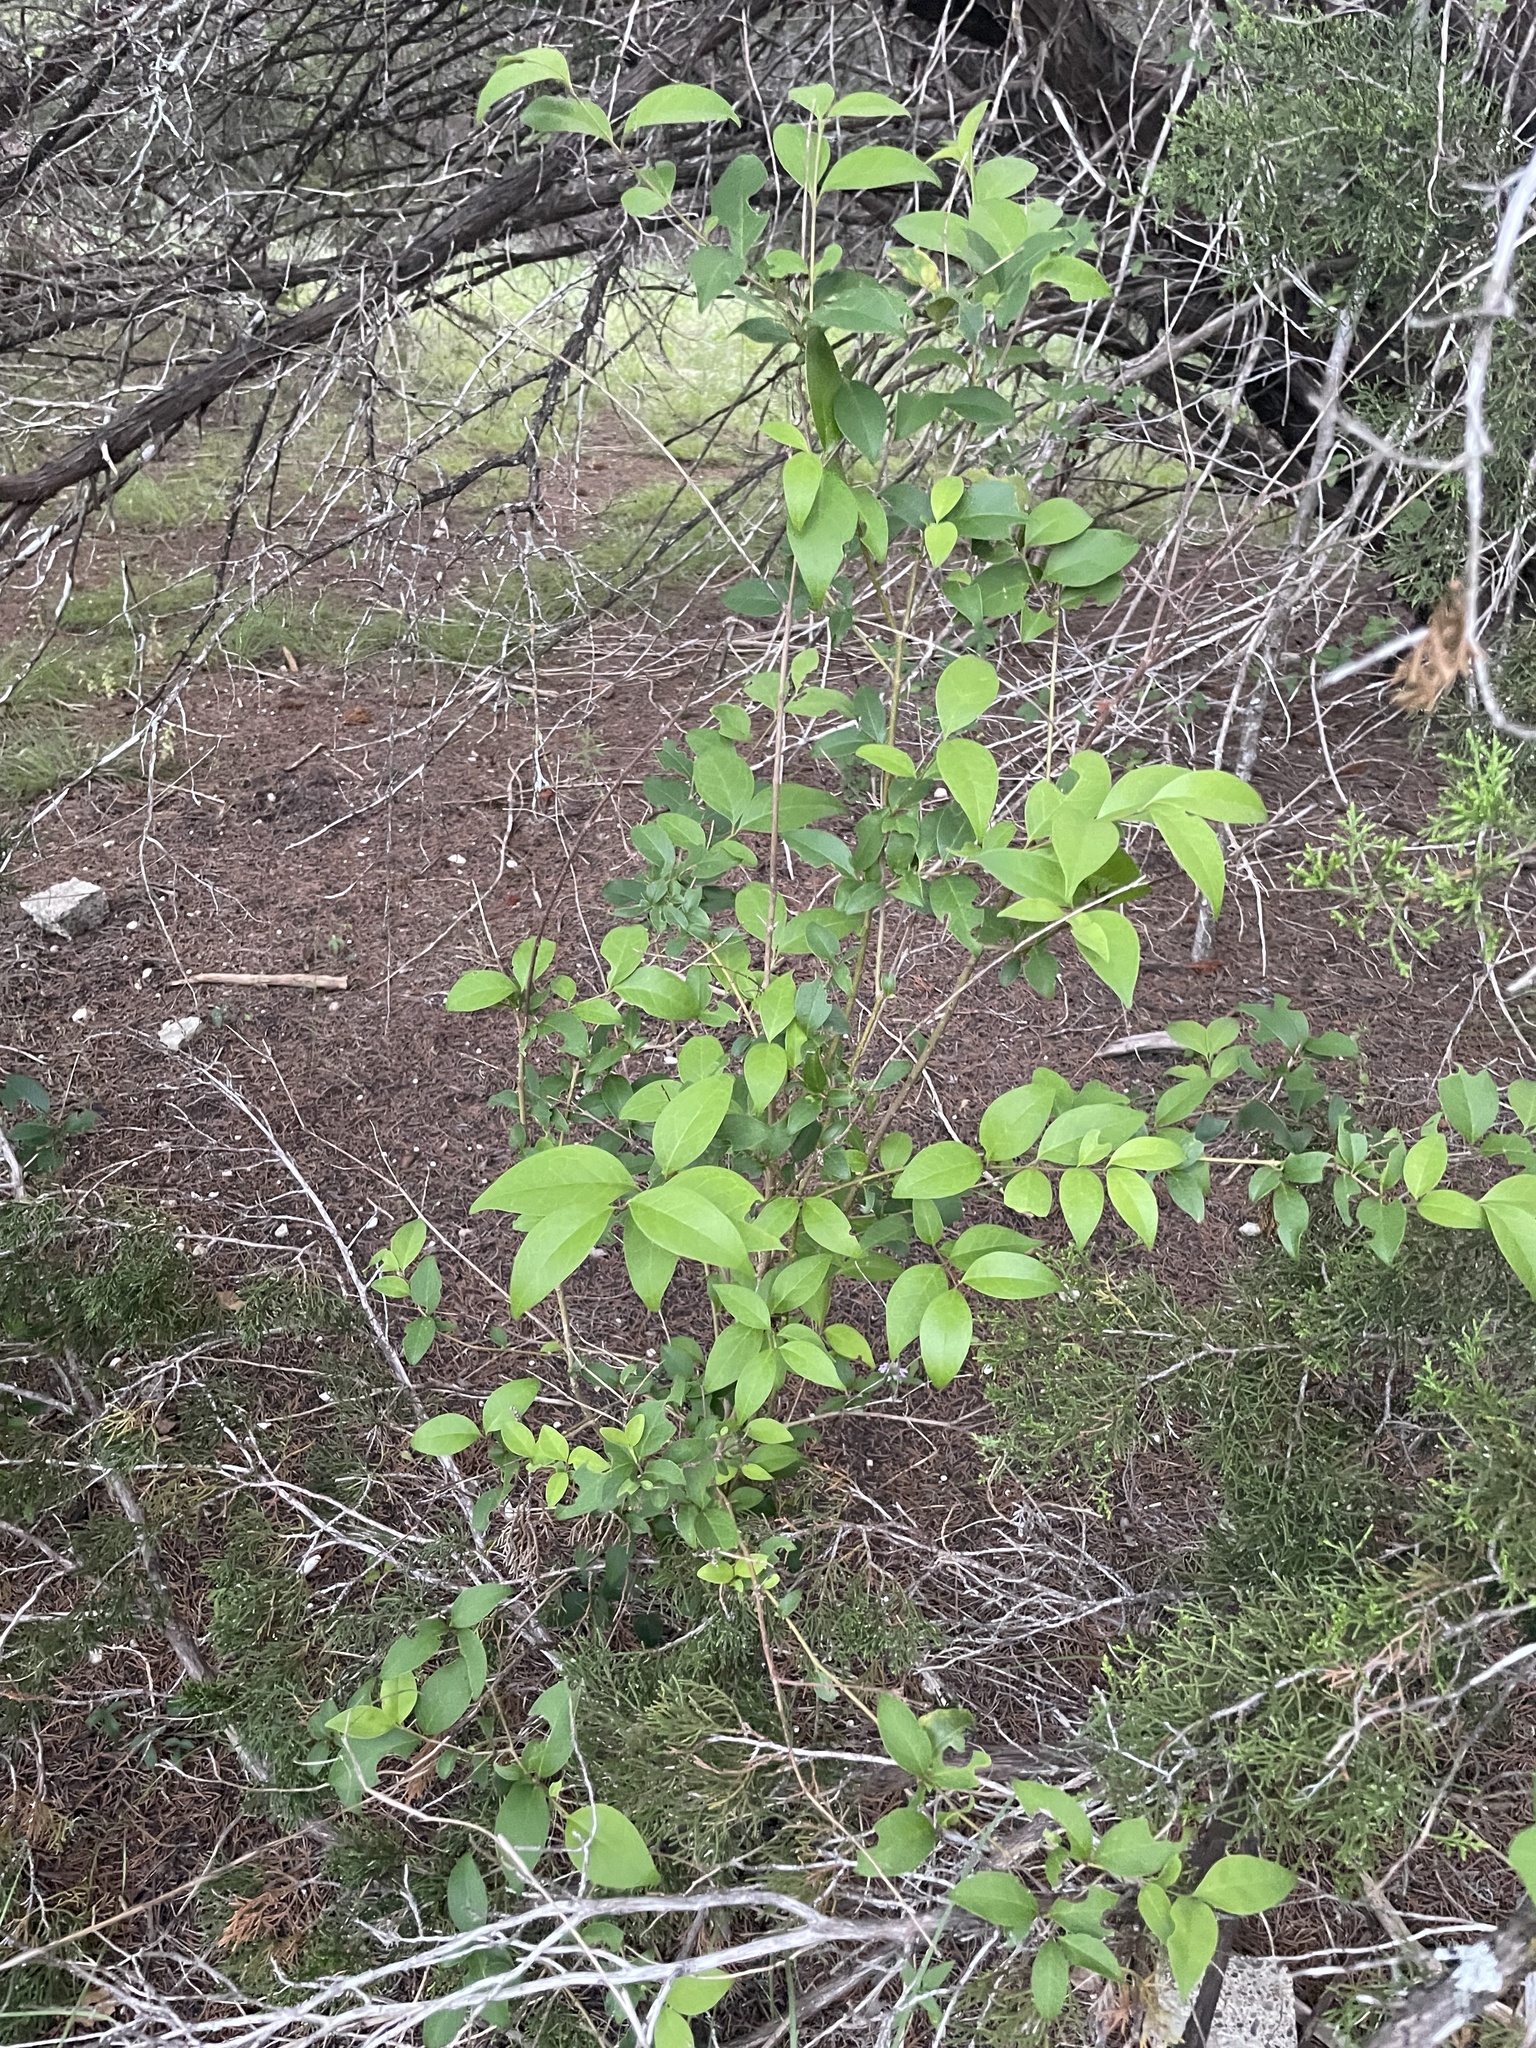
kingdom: Plantae
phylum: Tracheophyta
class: Magnoliopsida
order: Lamiales
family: Oleaceae
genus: Ligustrum
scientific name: Ligustrum lucidum
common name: Glossy privet
